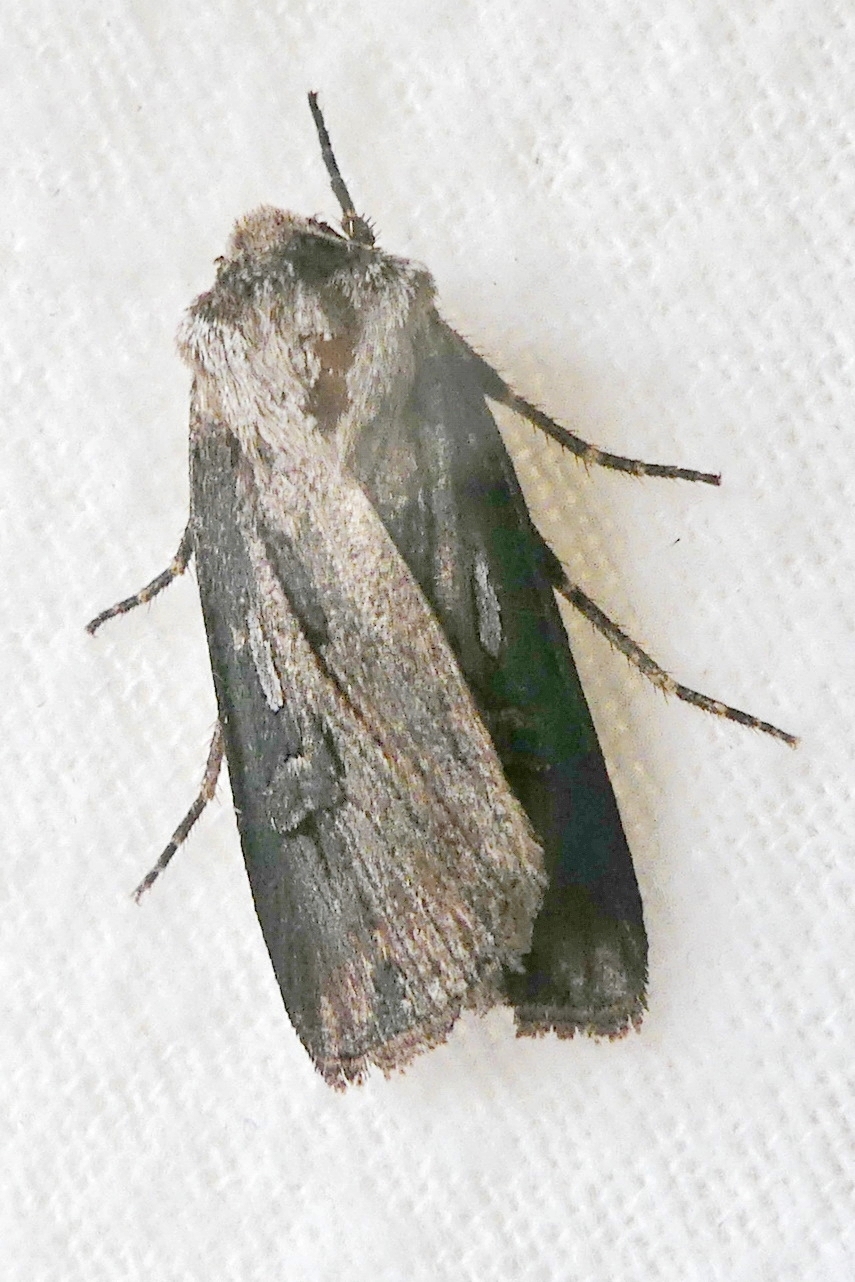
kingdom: Animalia
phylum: Arthropoda
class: Insecta
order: Lepidoptera
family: Noctuidae
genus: Agrotis
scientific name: Agrotis venerabilis
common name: Venerable dart
